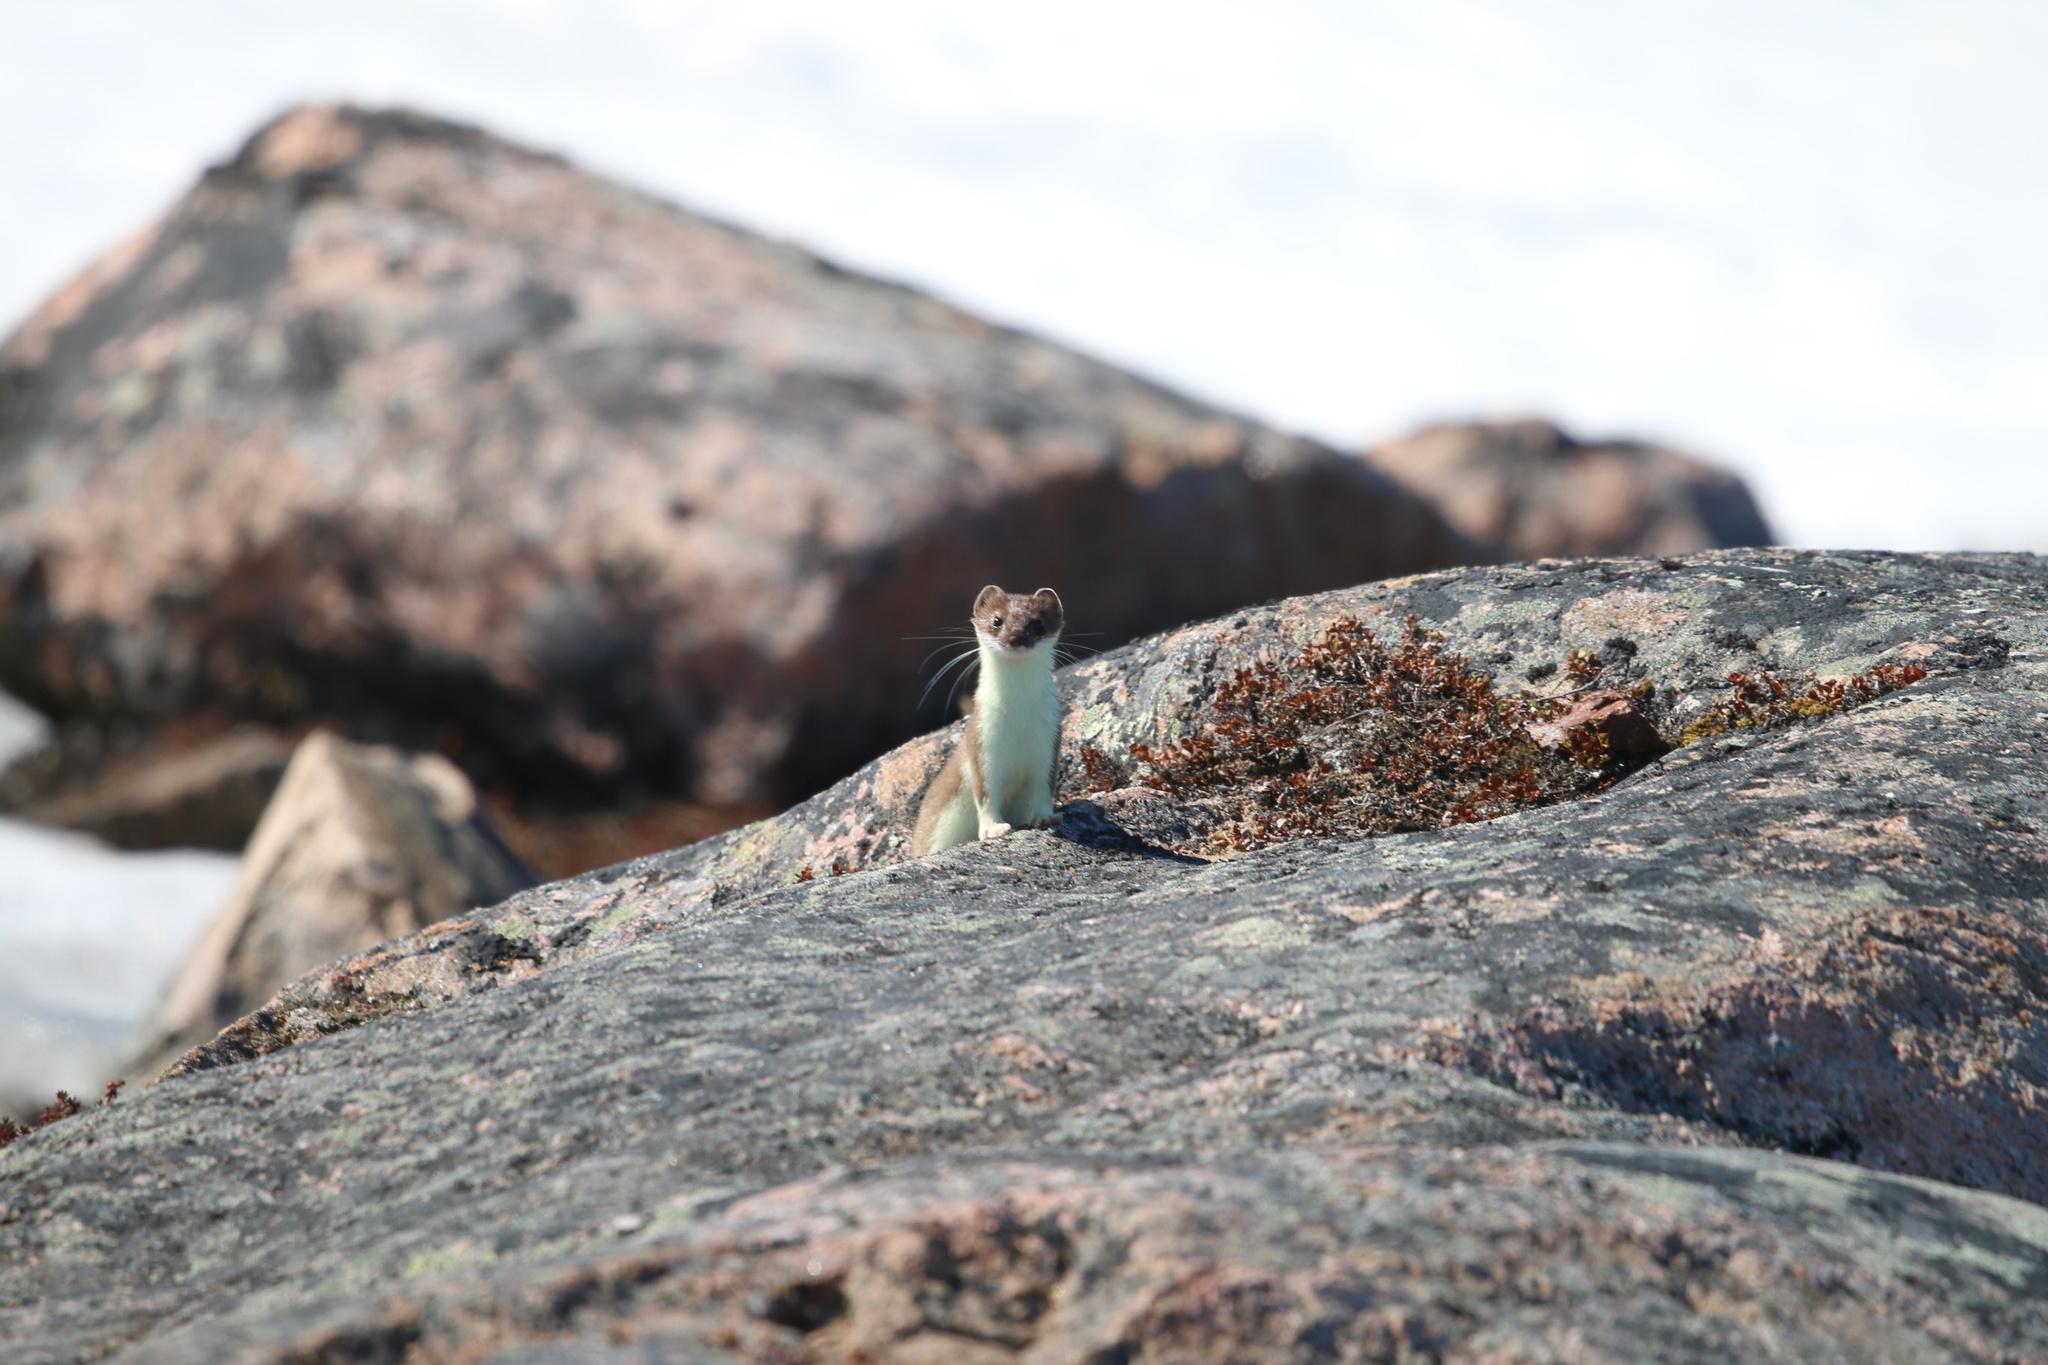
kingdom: Animalia
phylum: Chordata
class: Mammalia
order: Carnivora
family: Mustelidae
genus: Mustela
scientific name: Mustela erminea
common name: Stoat
